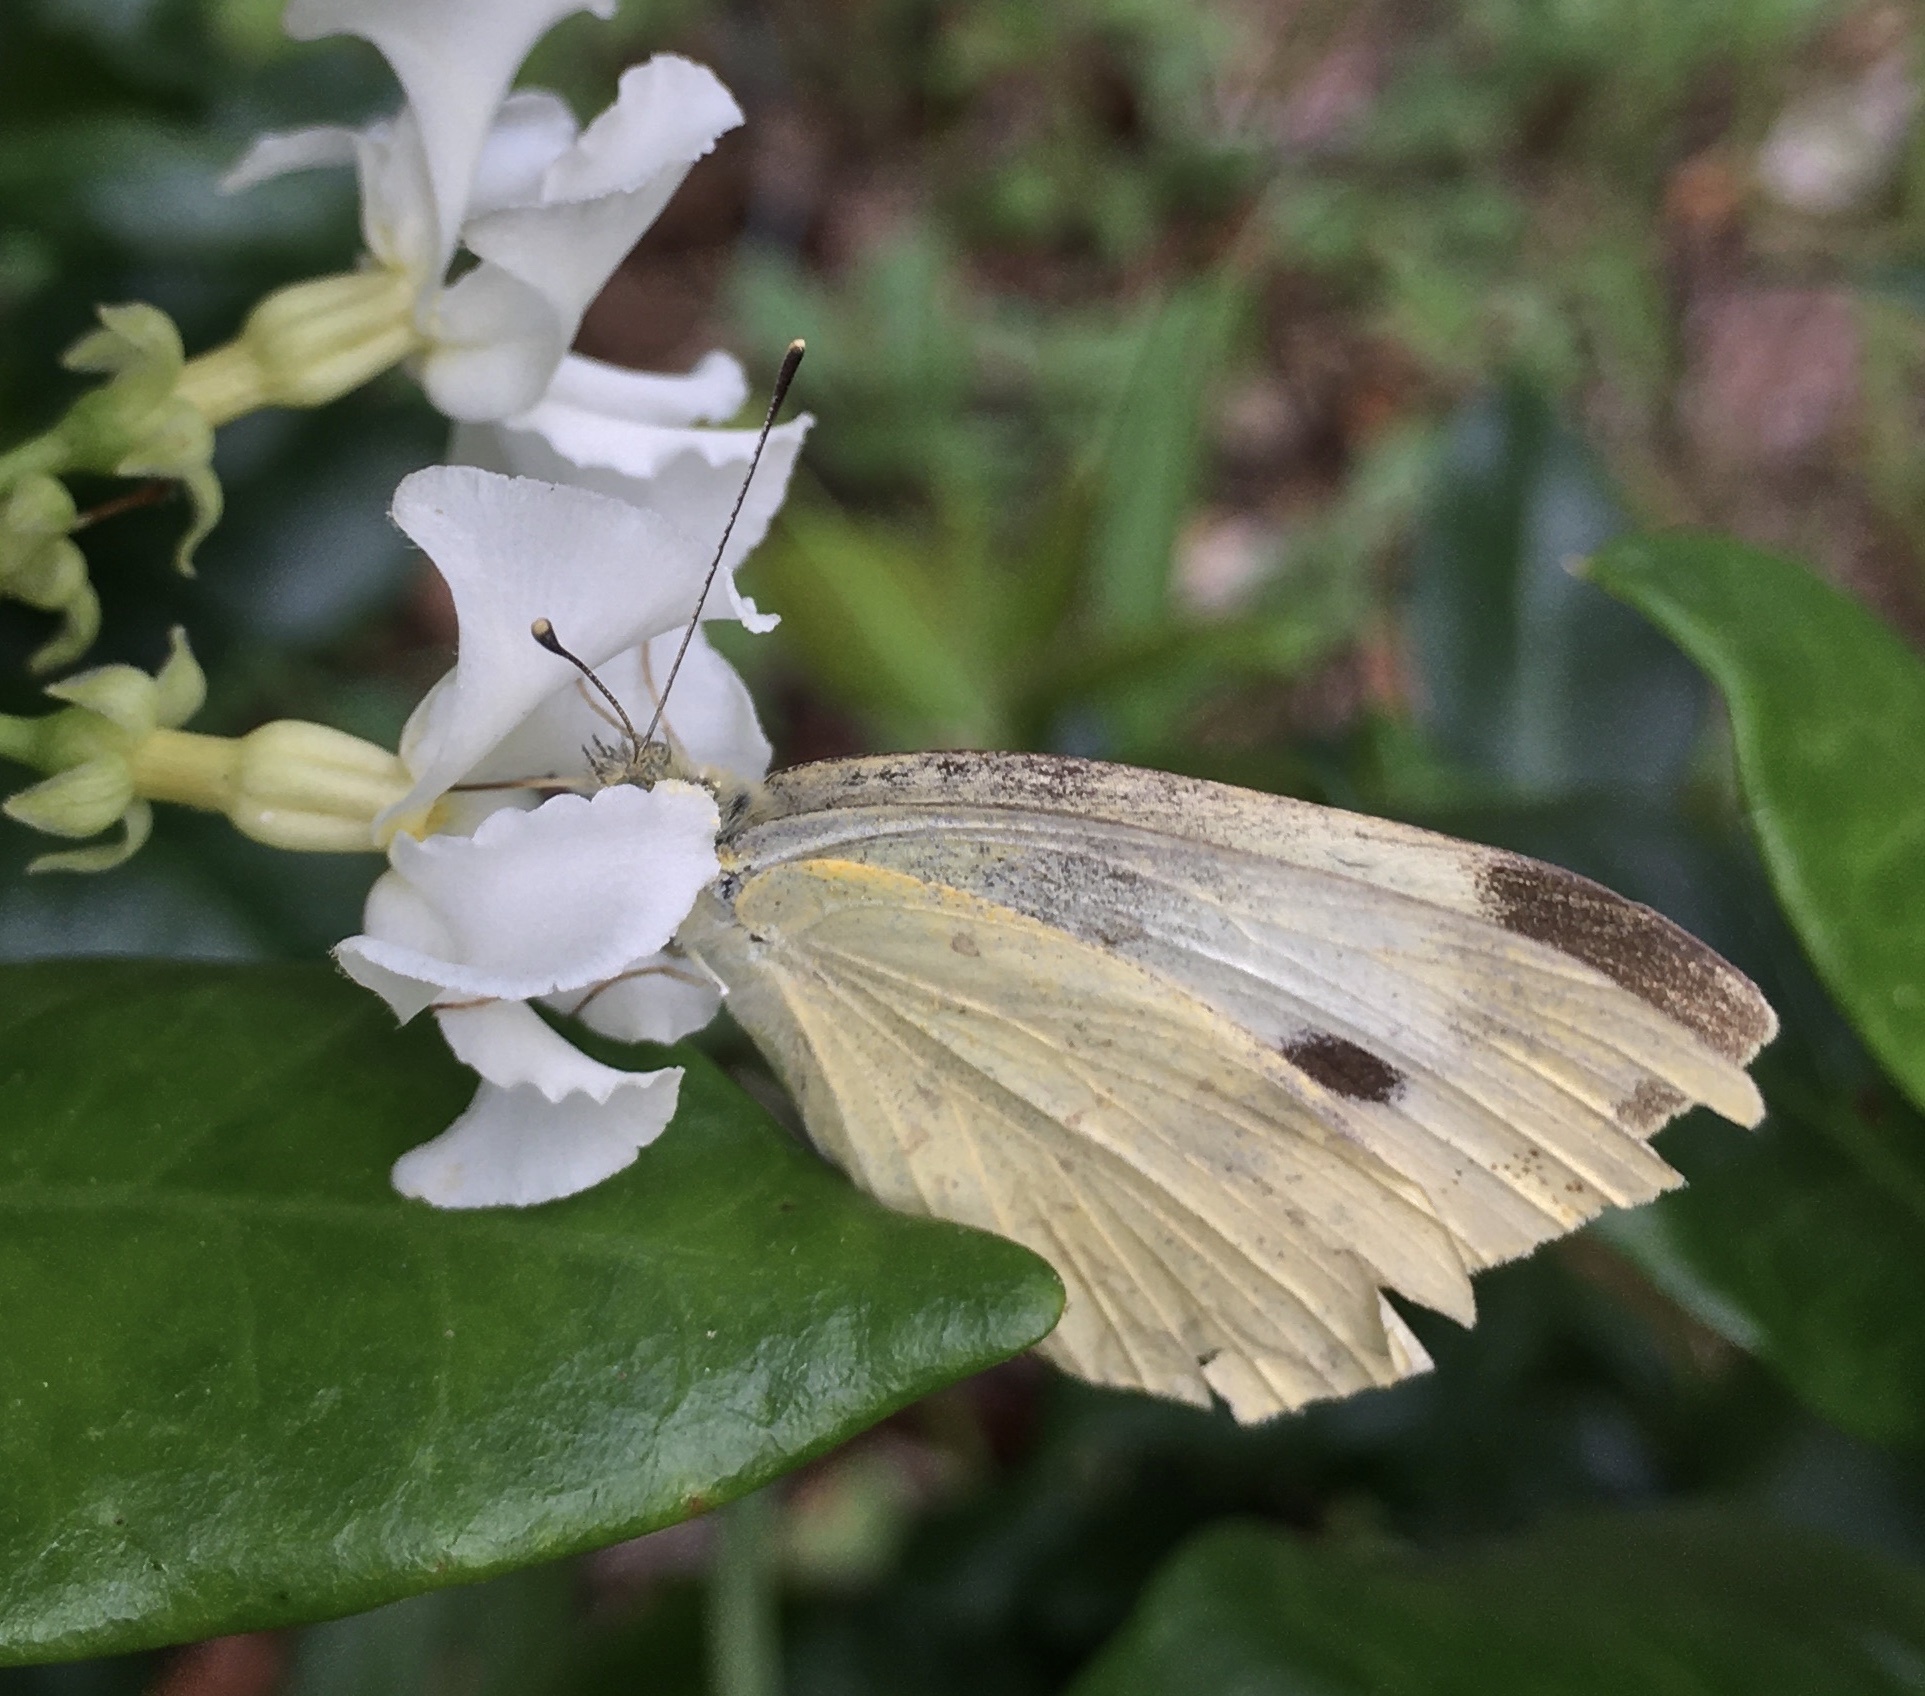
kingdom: Animalia
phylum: Arthropoda
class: Insecta
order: Lepidoptera
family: Pieridae
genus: Pieris
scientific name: Pieris rapae
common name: Small white
